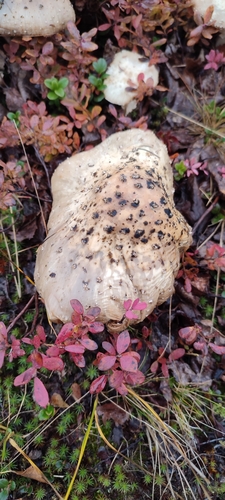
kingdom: Fungi
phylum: Basidiomycota
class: Agaricomycetes
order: Agaricales
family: Amanitaceae
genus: Amanita
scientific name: Amanita
